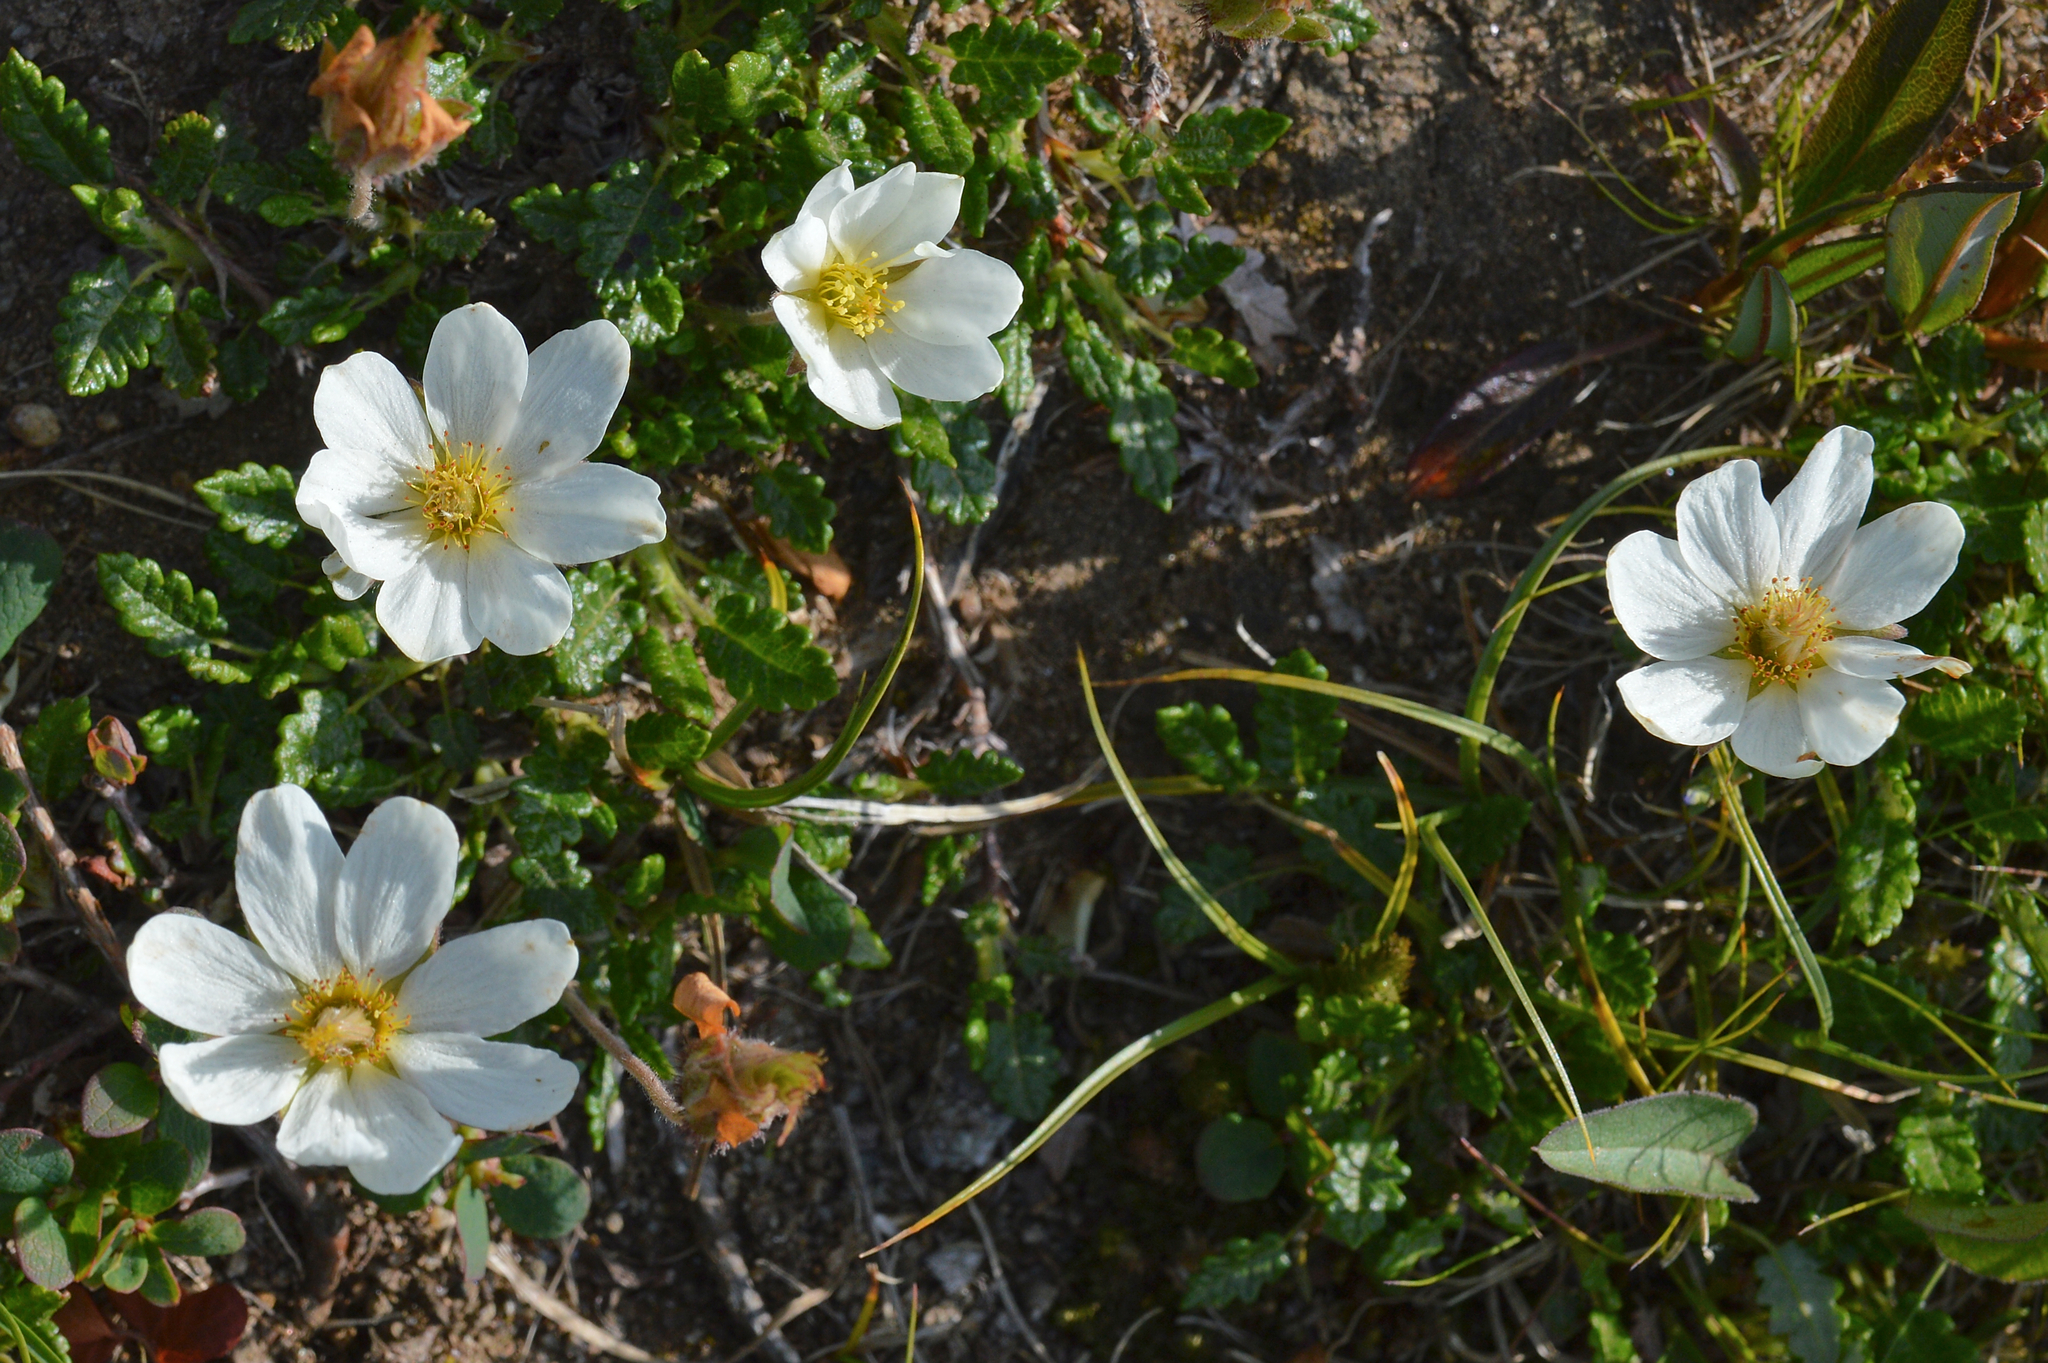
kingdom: Plantae
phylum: Tracheophyta
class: Magnoliopsida
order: Rosales
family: Rosaceae
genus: Dryas
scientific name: Dryas octopetala
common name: Eight-petal mountain-avens
